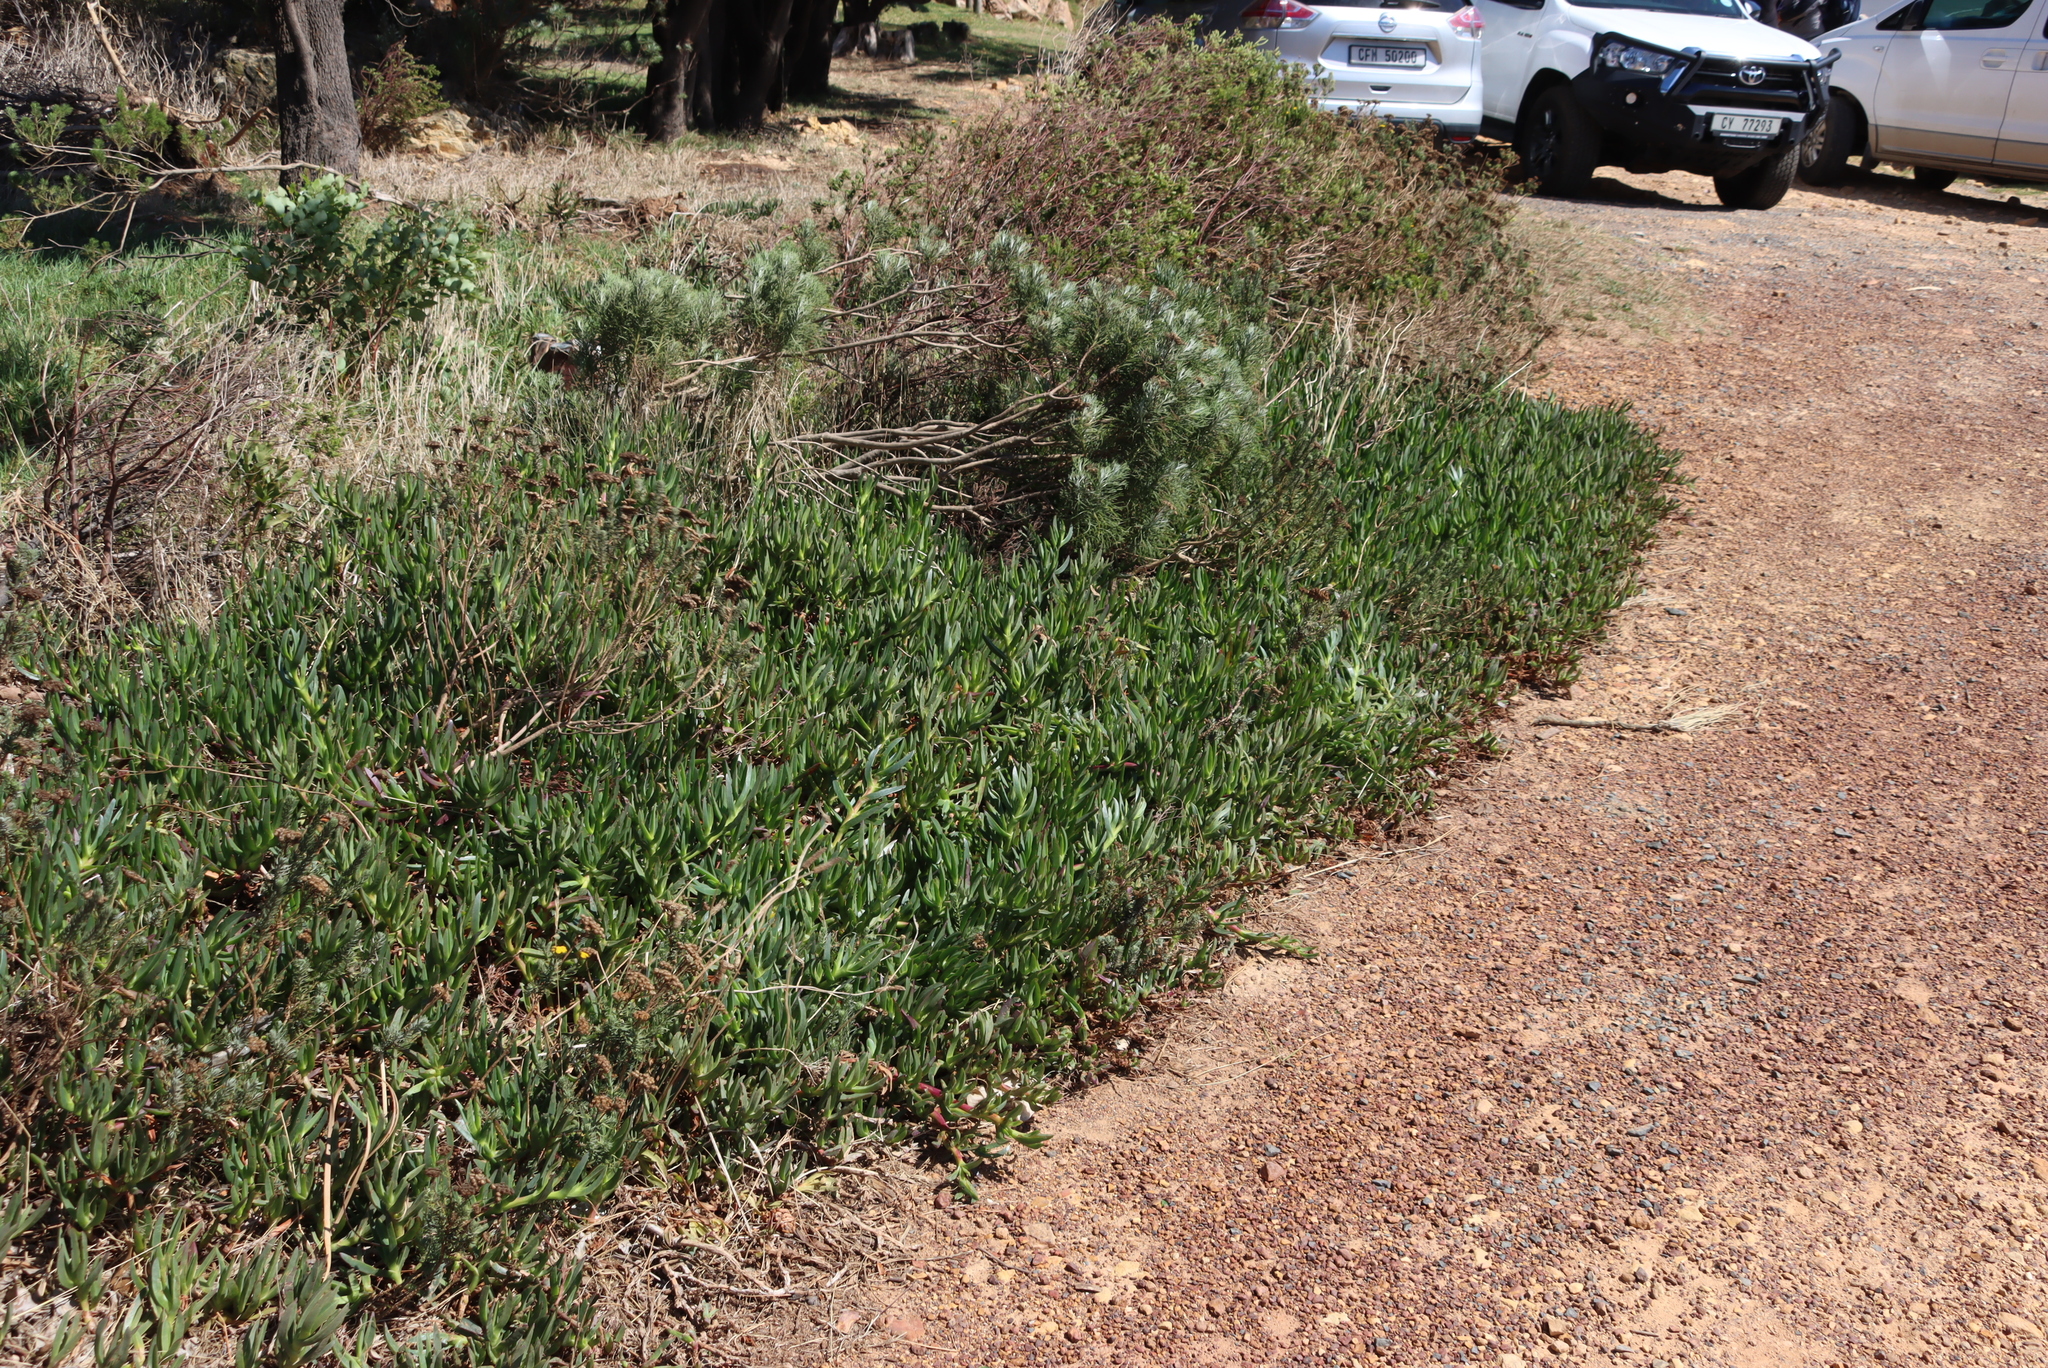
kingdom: Plantae
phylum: Tracheophyta
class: Magnoliopsida
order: Caryophyllales
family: Aizoaceae
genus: Carpobrotus
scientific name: Carpobrotus edulis
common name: Hottentot-fig
